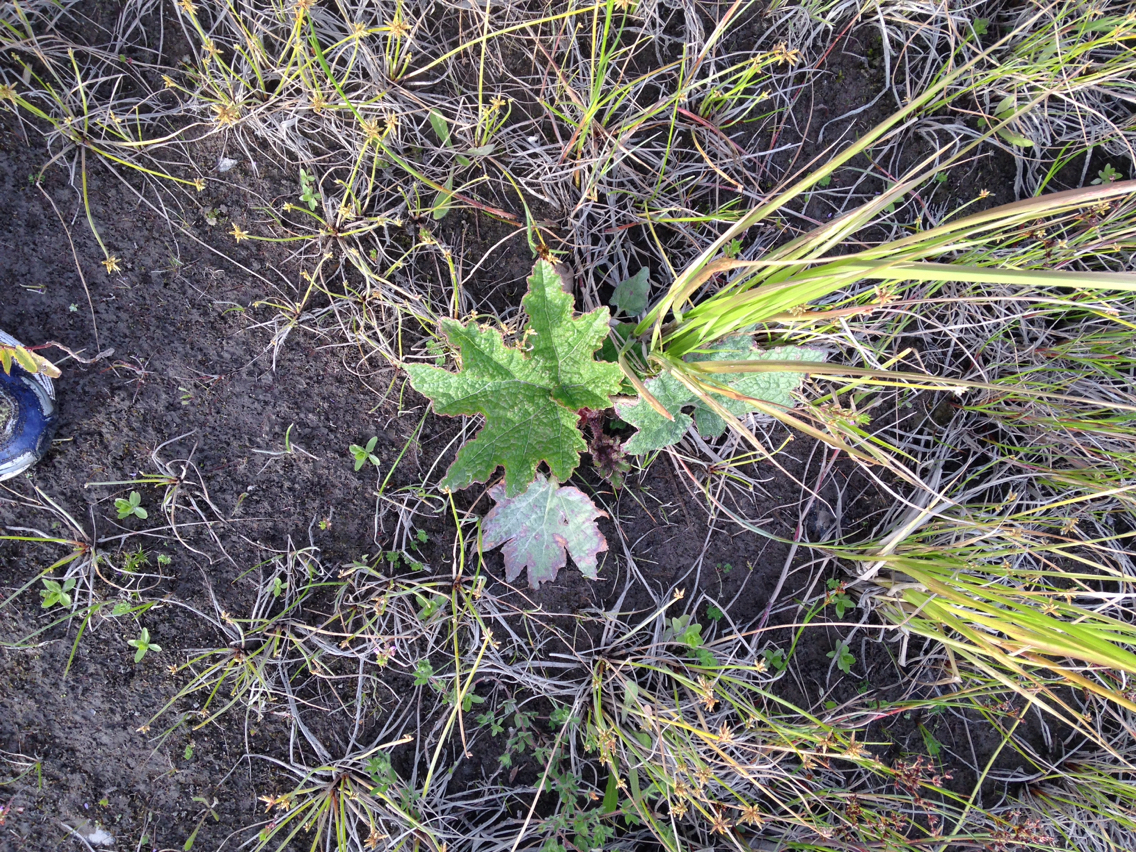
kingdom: Plantae
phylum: Tracheophyta
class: Magnoliopsida
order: Gunnerales
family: Gunneraceae
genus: Gunnera
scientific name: Gunnera tinctoria
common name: Giant-rhubarb
